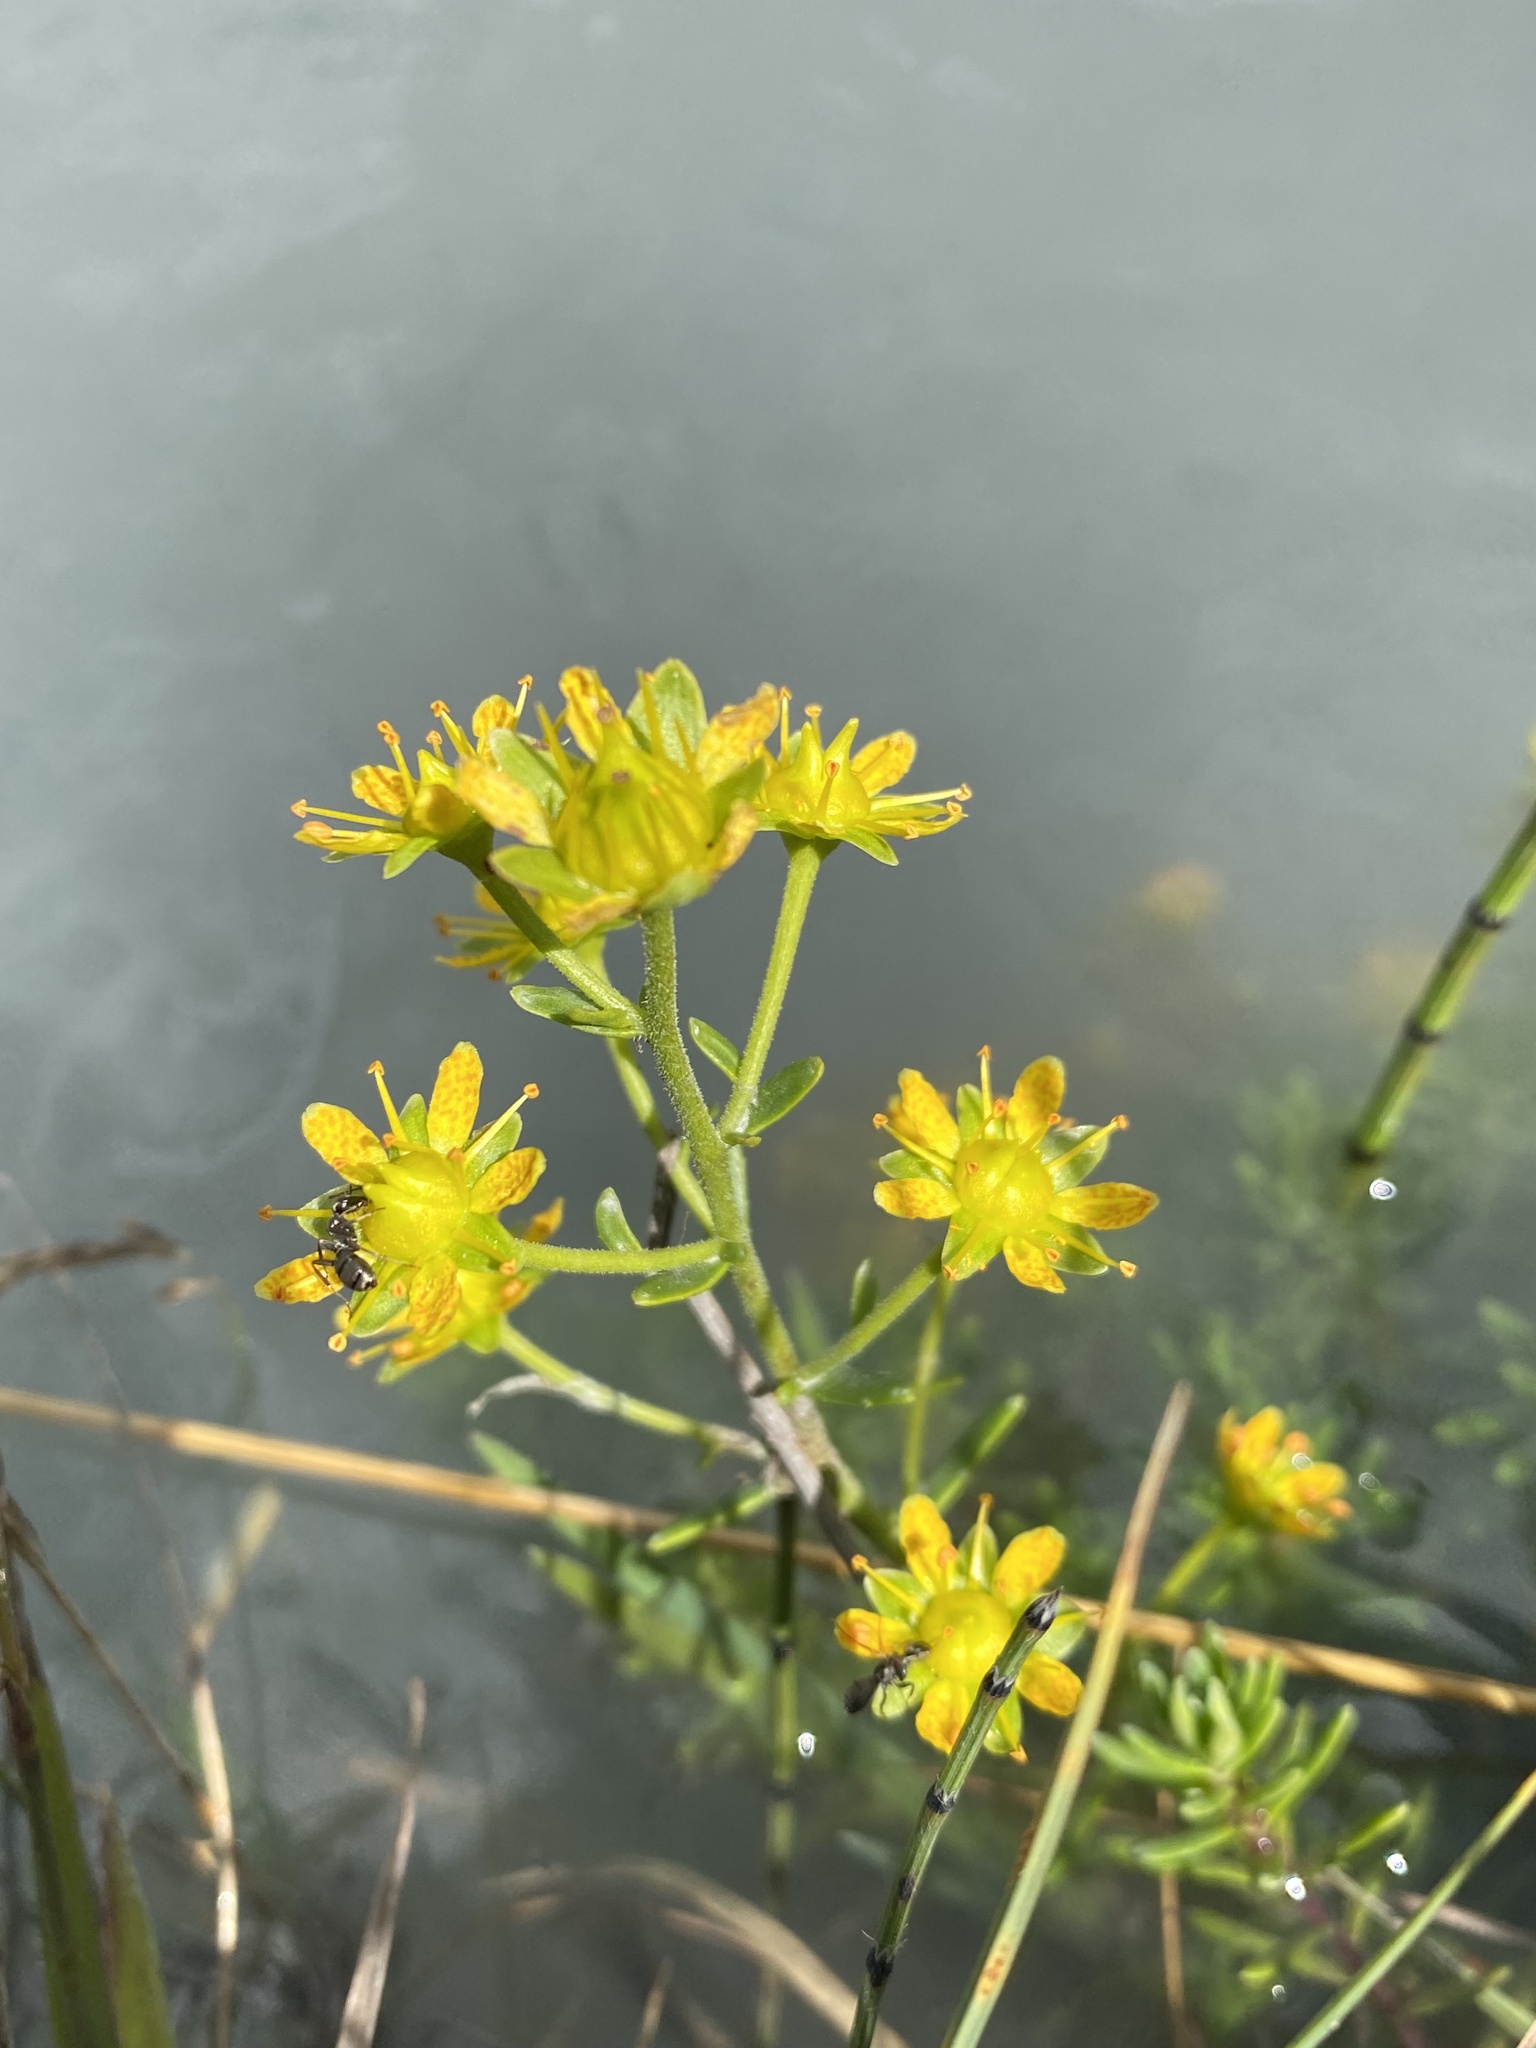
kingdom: Plantae
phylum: Tracheophyta
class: Magnoliopsida
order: Saxifragales
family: Saxifragaceae
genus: Saxifraga
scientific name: Saxifraga aizoides
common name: Yellow mountain saxifrage
